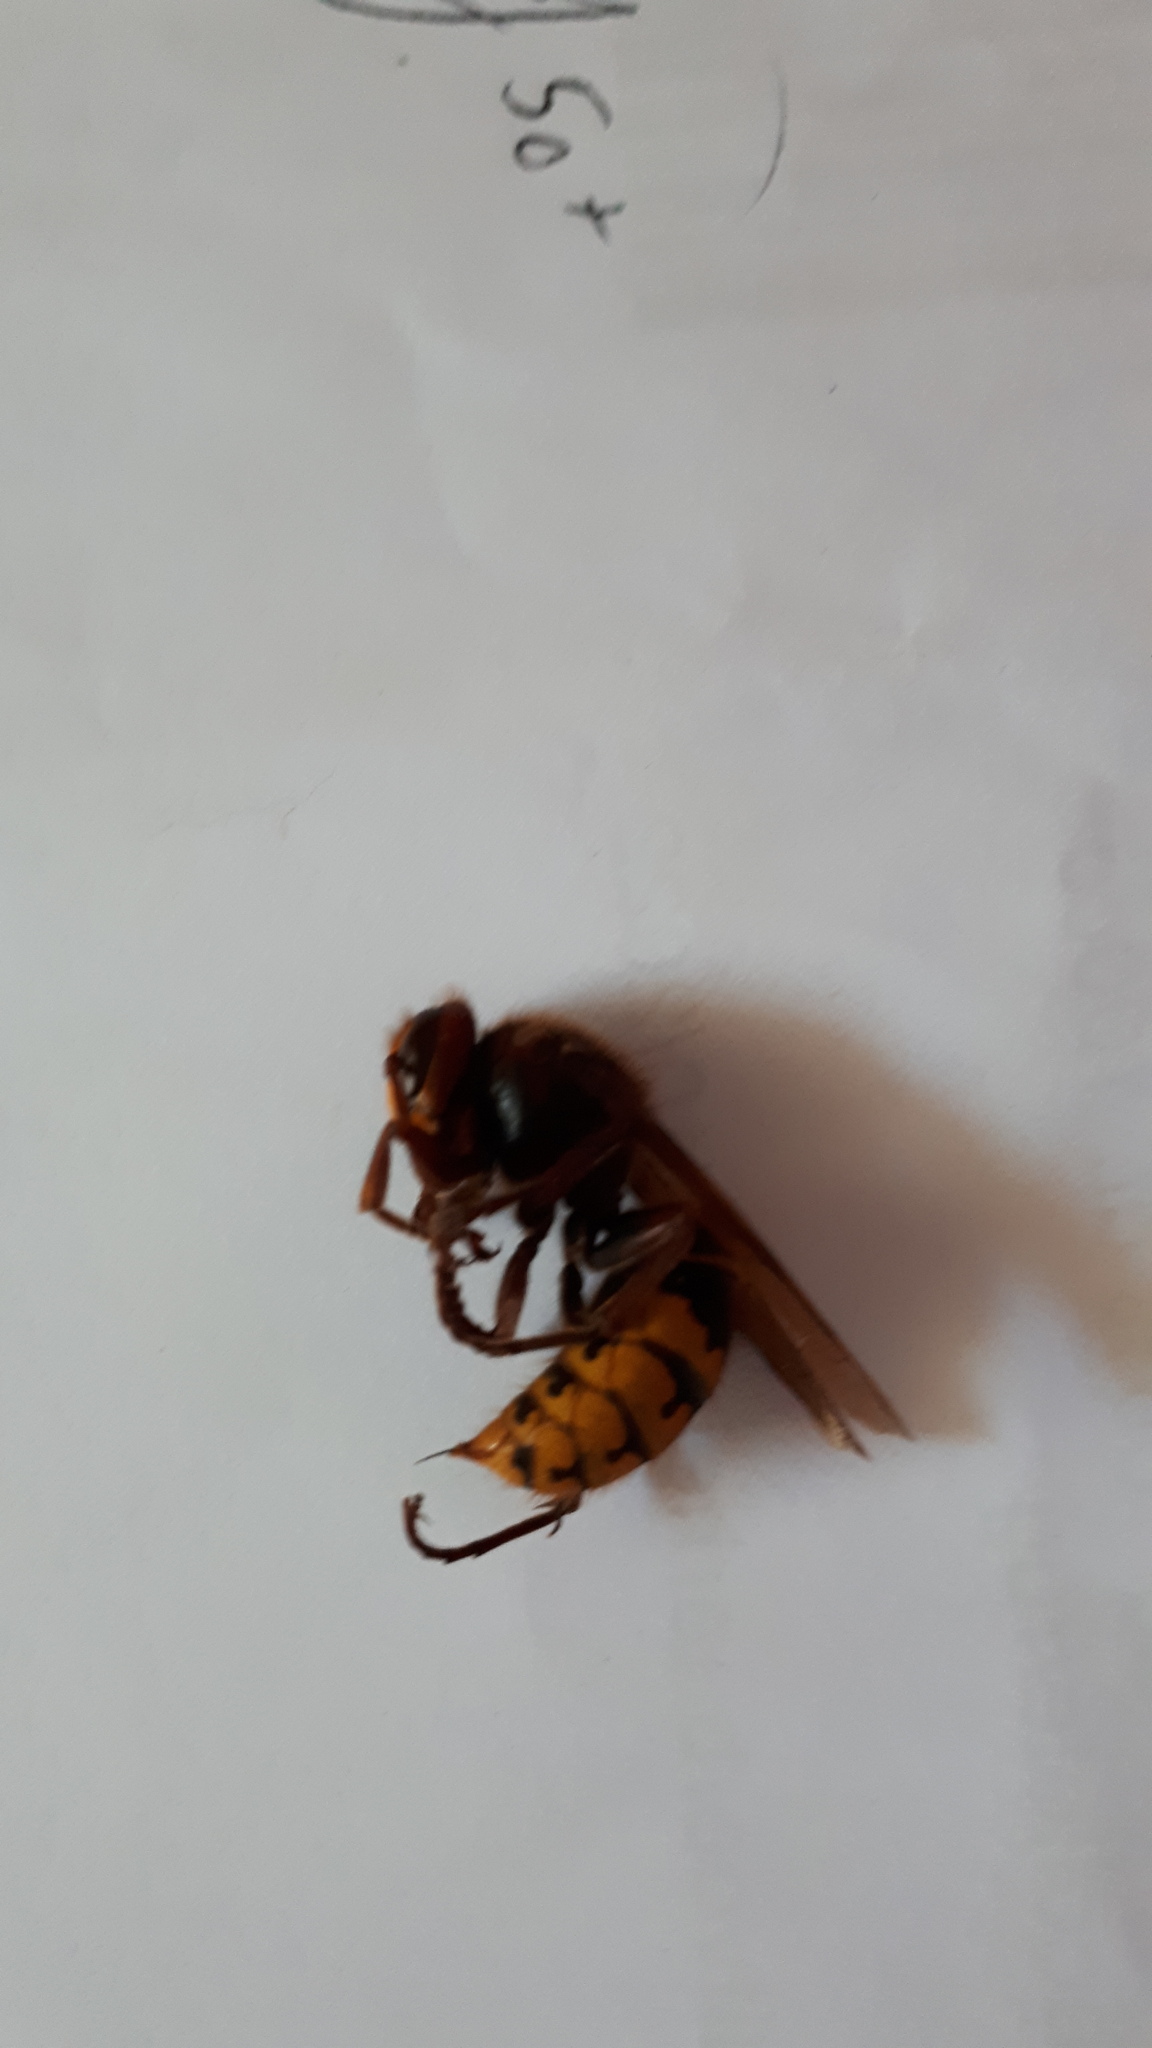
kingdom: Animalia
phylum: Arthropoda
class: Insecta
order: Hymenoptera
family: Vespidae
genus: Vespa
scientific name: Vespa crabro
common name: Hornet
